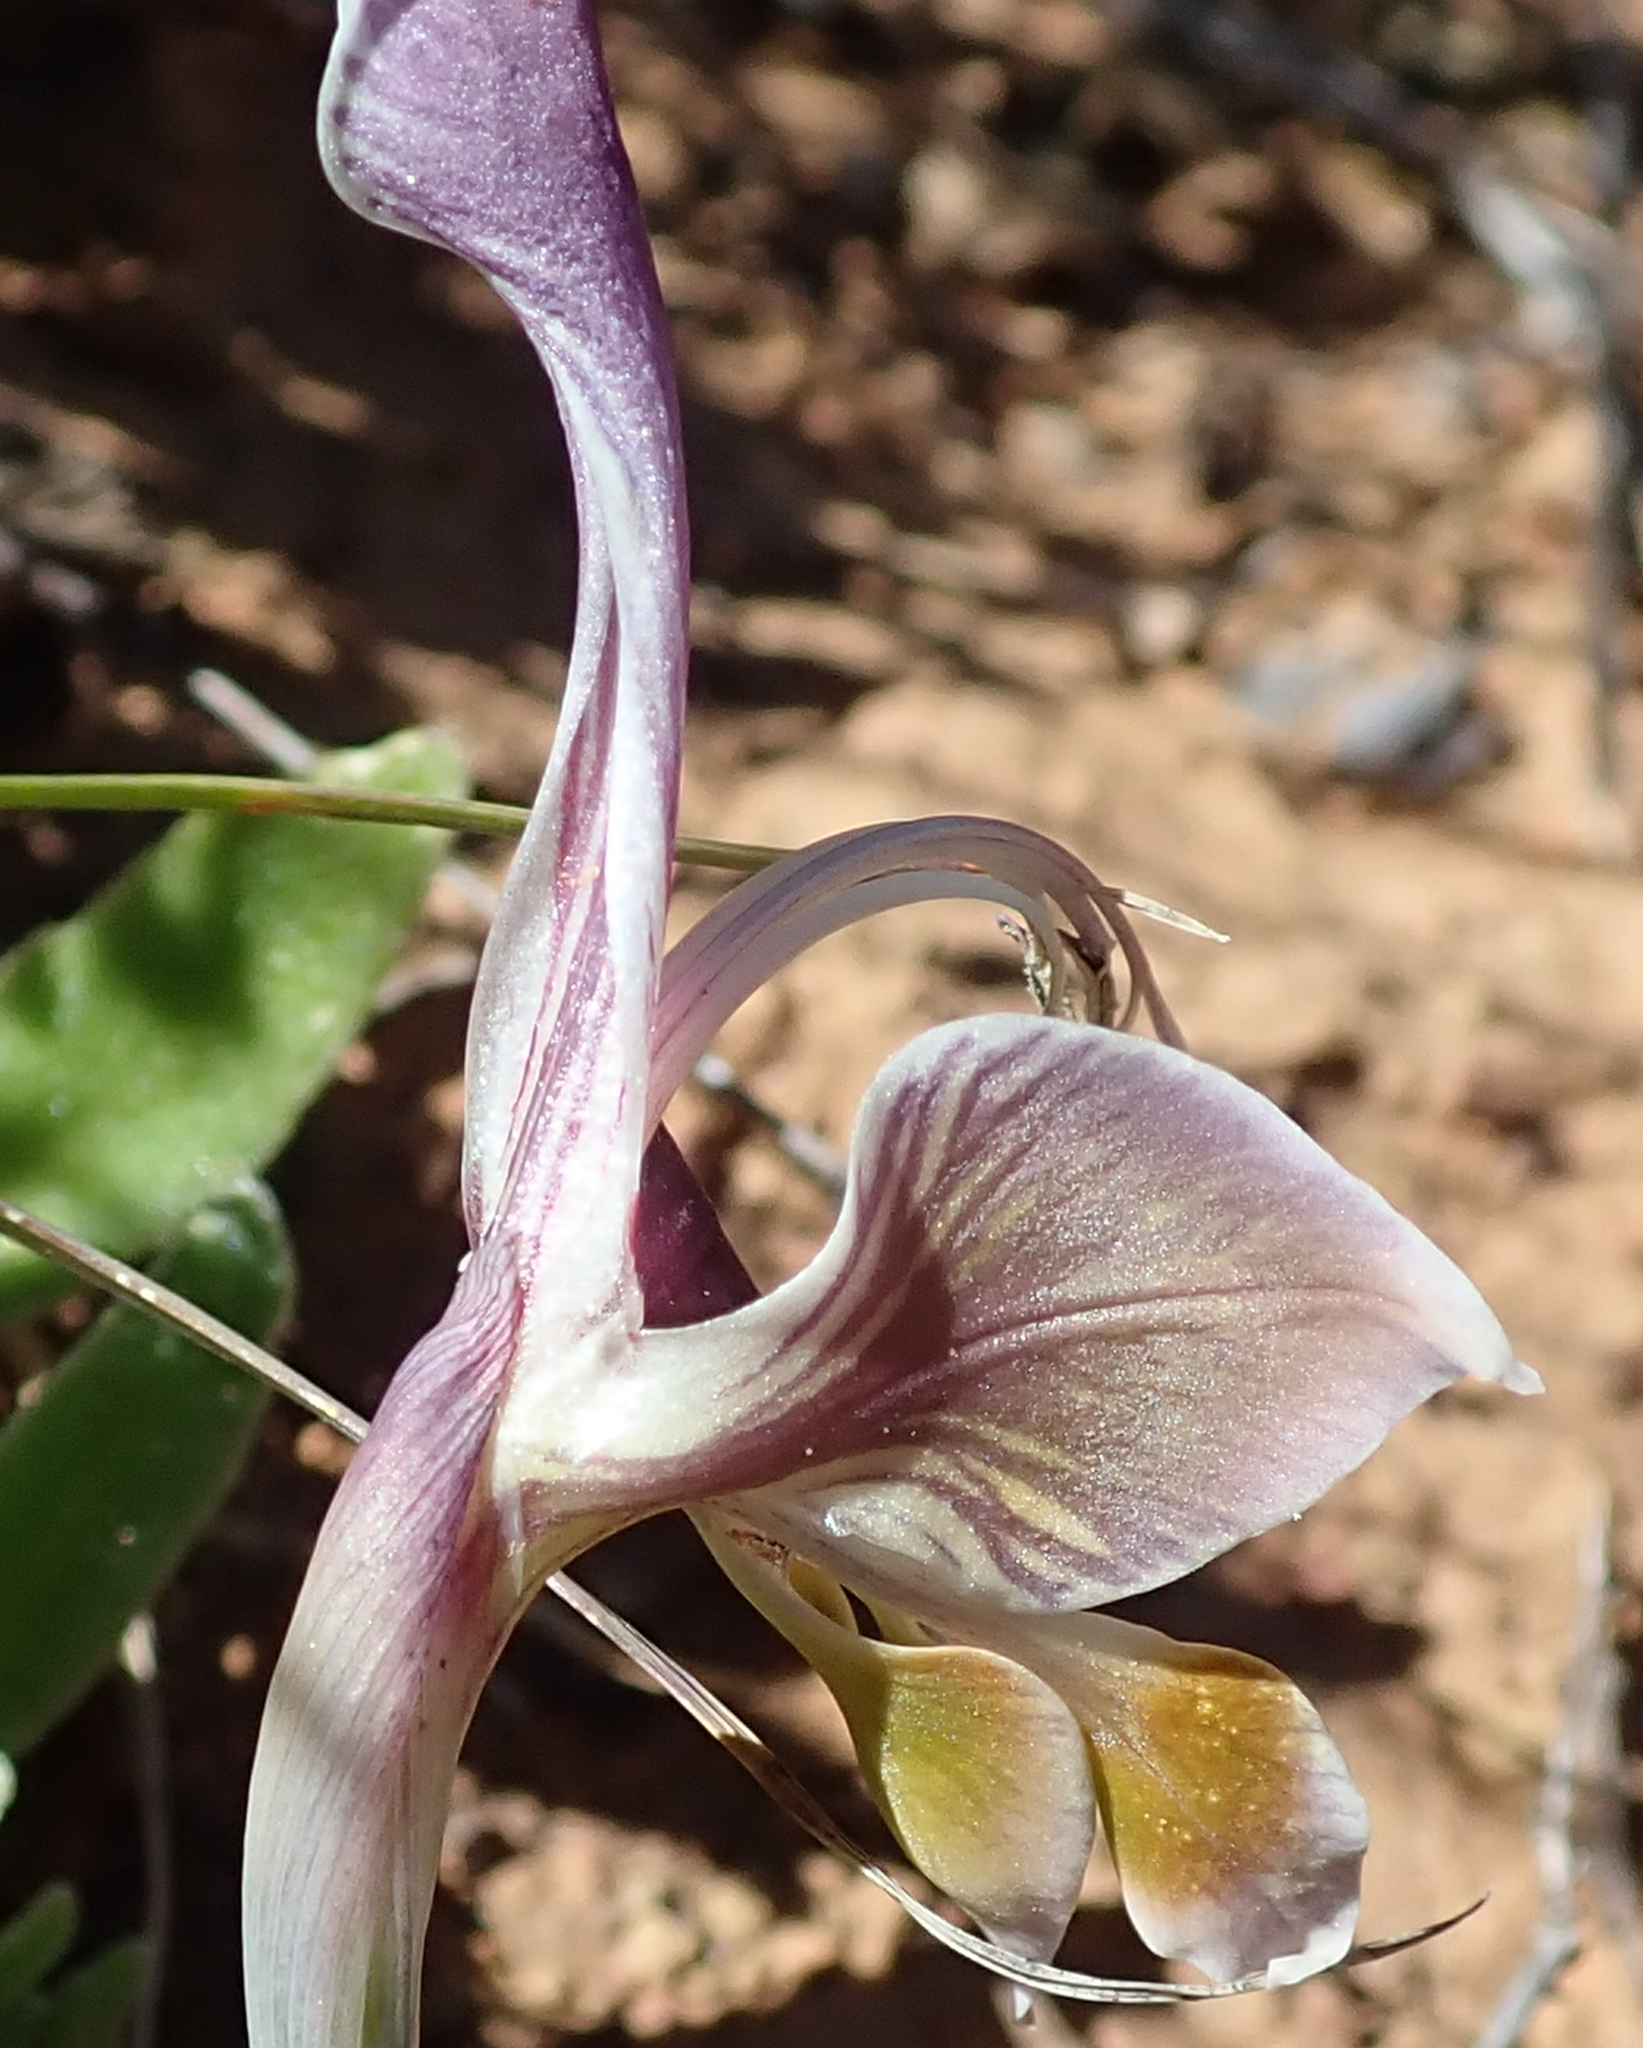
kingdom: Plantae
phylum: Tracheophyta
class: Liliopsida
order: Asparagales
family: Iridaceae
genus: Gladiolus
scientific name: Gladiolus uysiae
